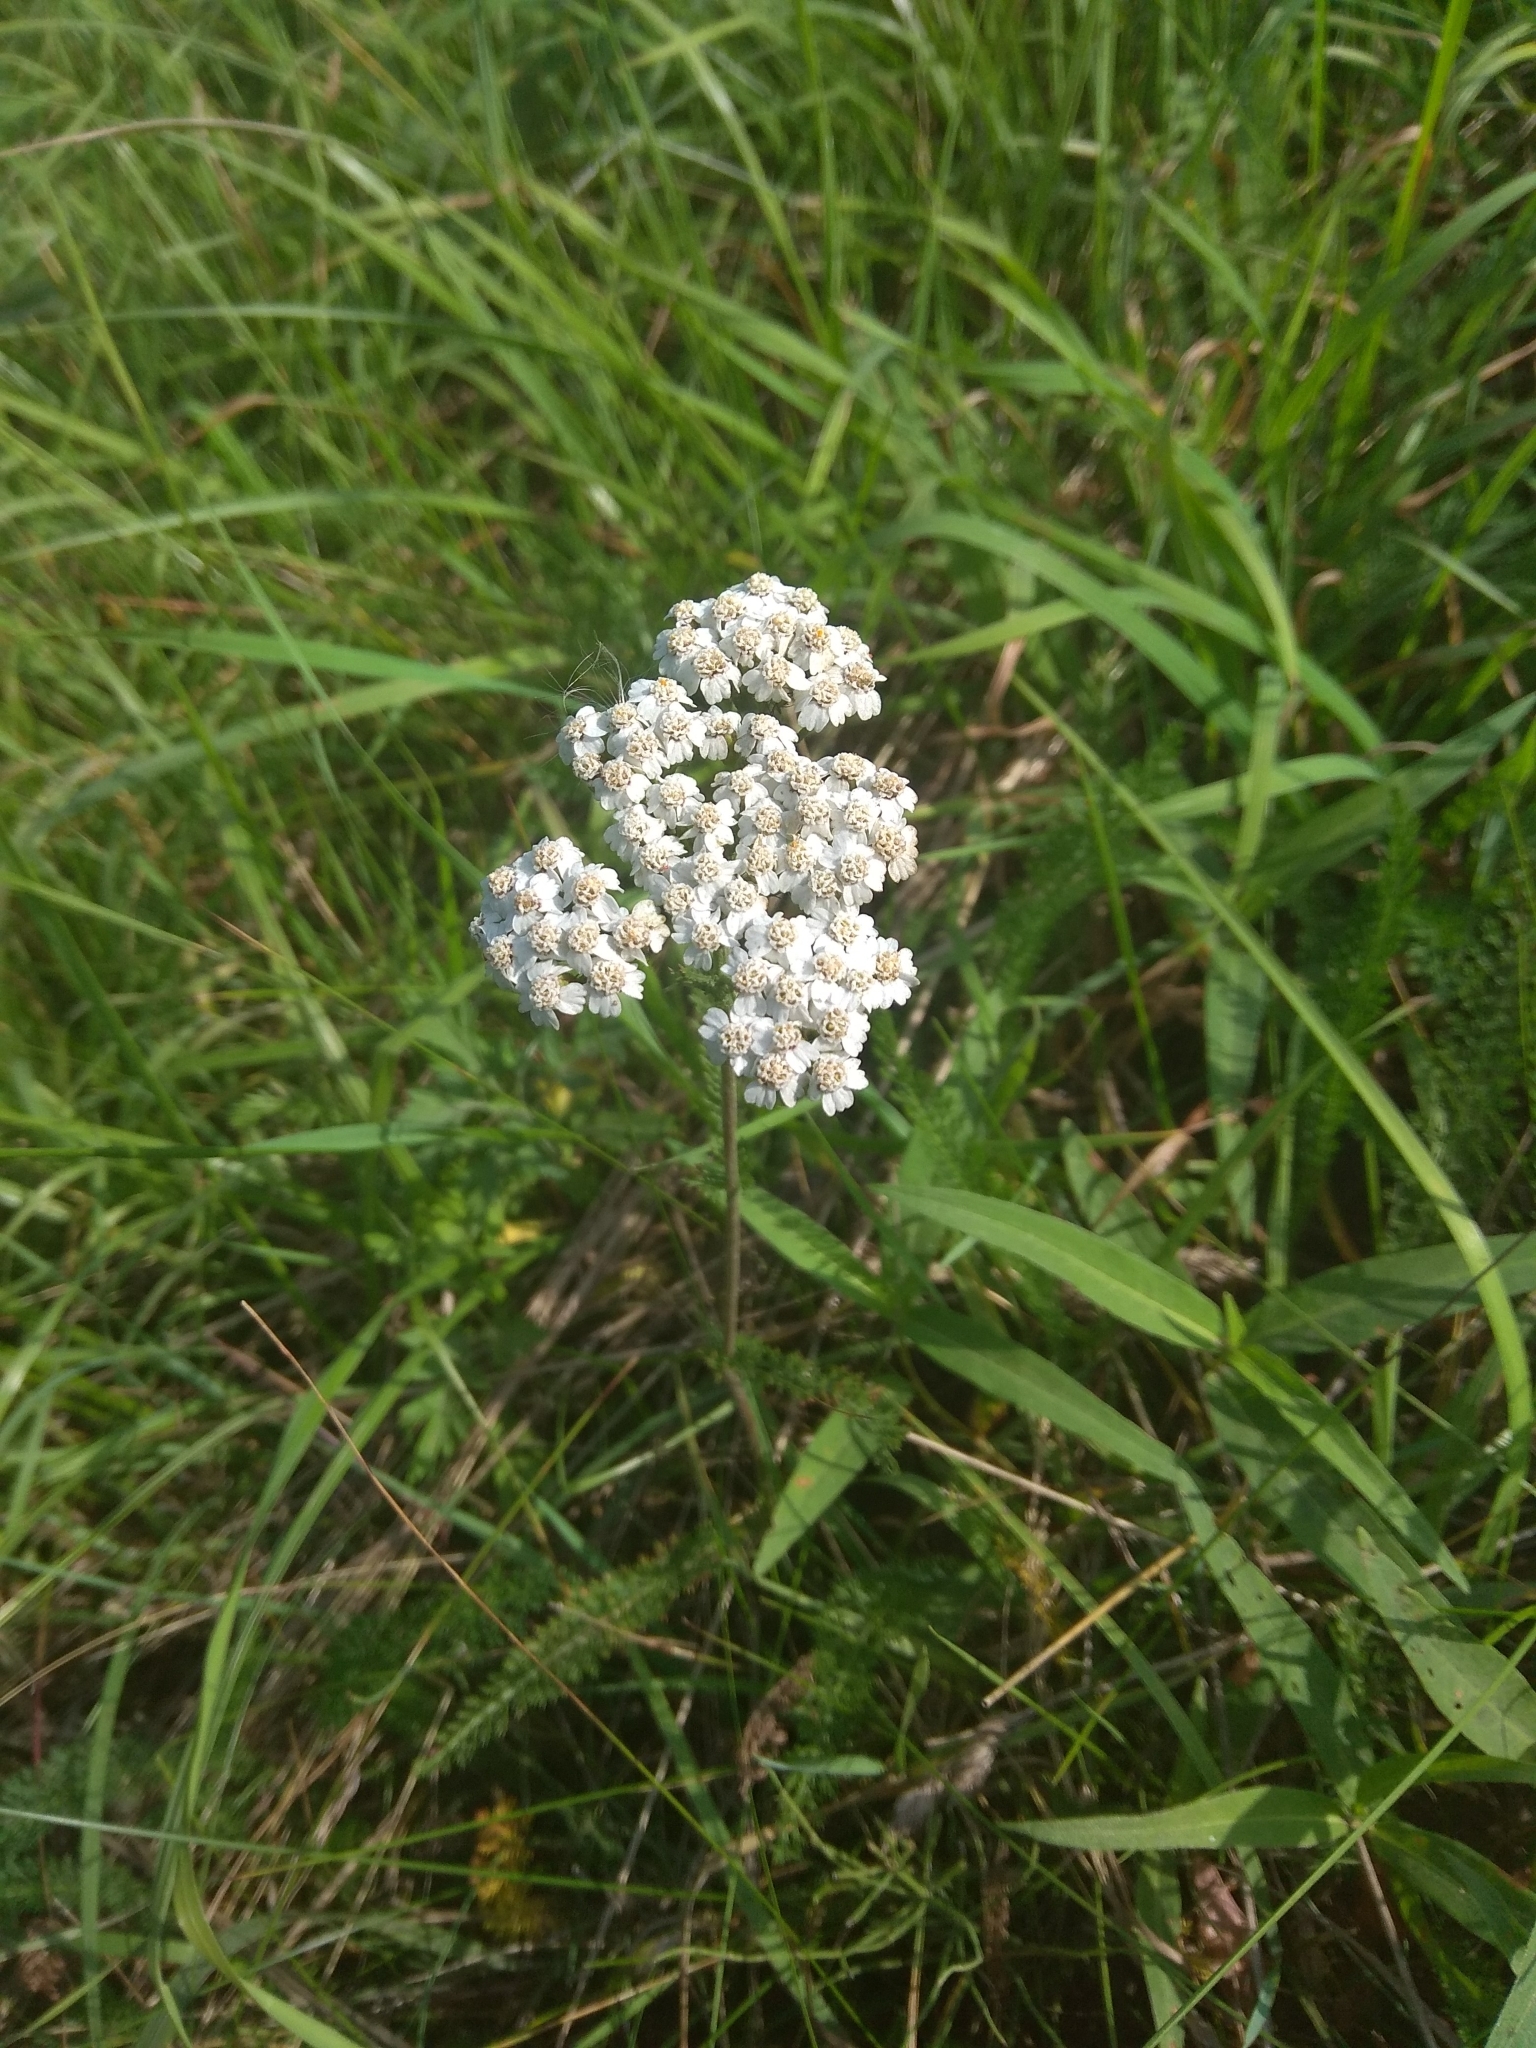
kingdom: Plantae
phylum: Tracheophyta
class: Magnoliopsida
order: Asterales
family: Asteraceae
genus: Achillea
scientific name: Achillea millefolium
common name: Yarrow
